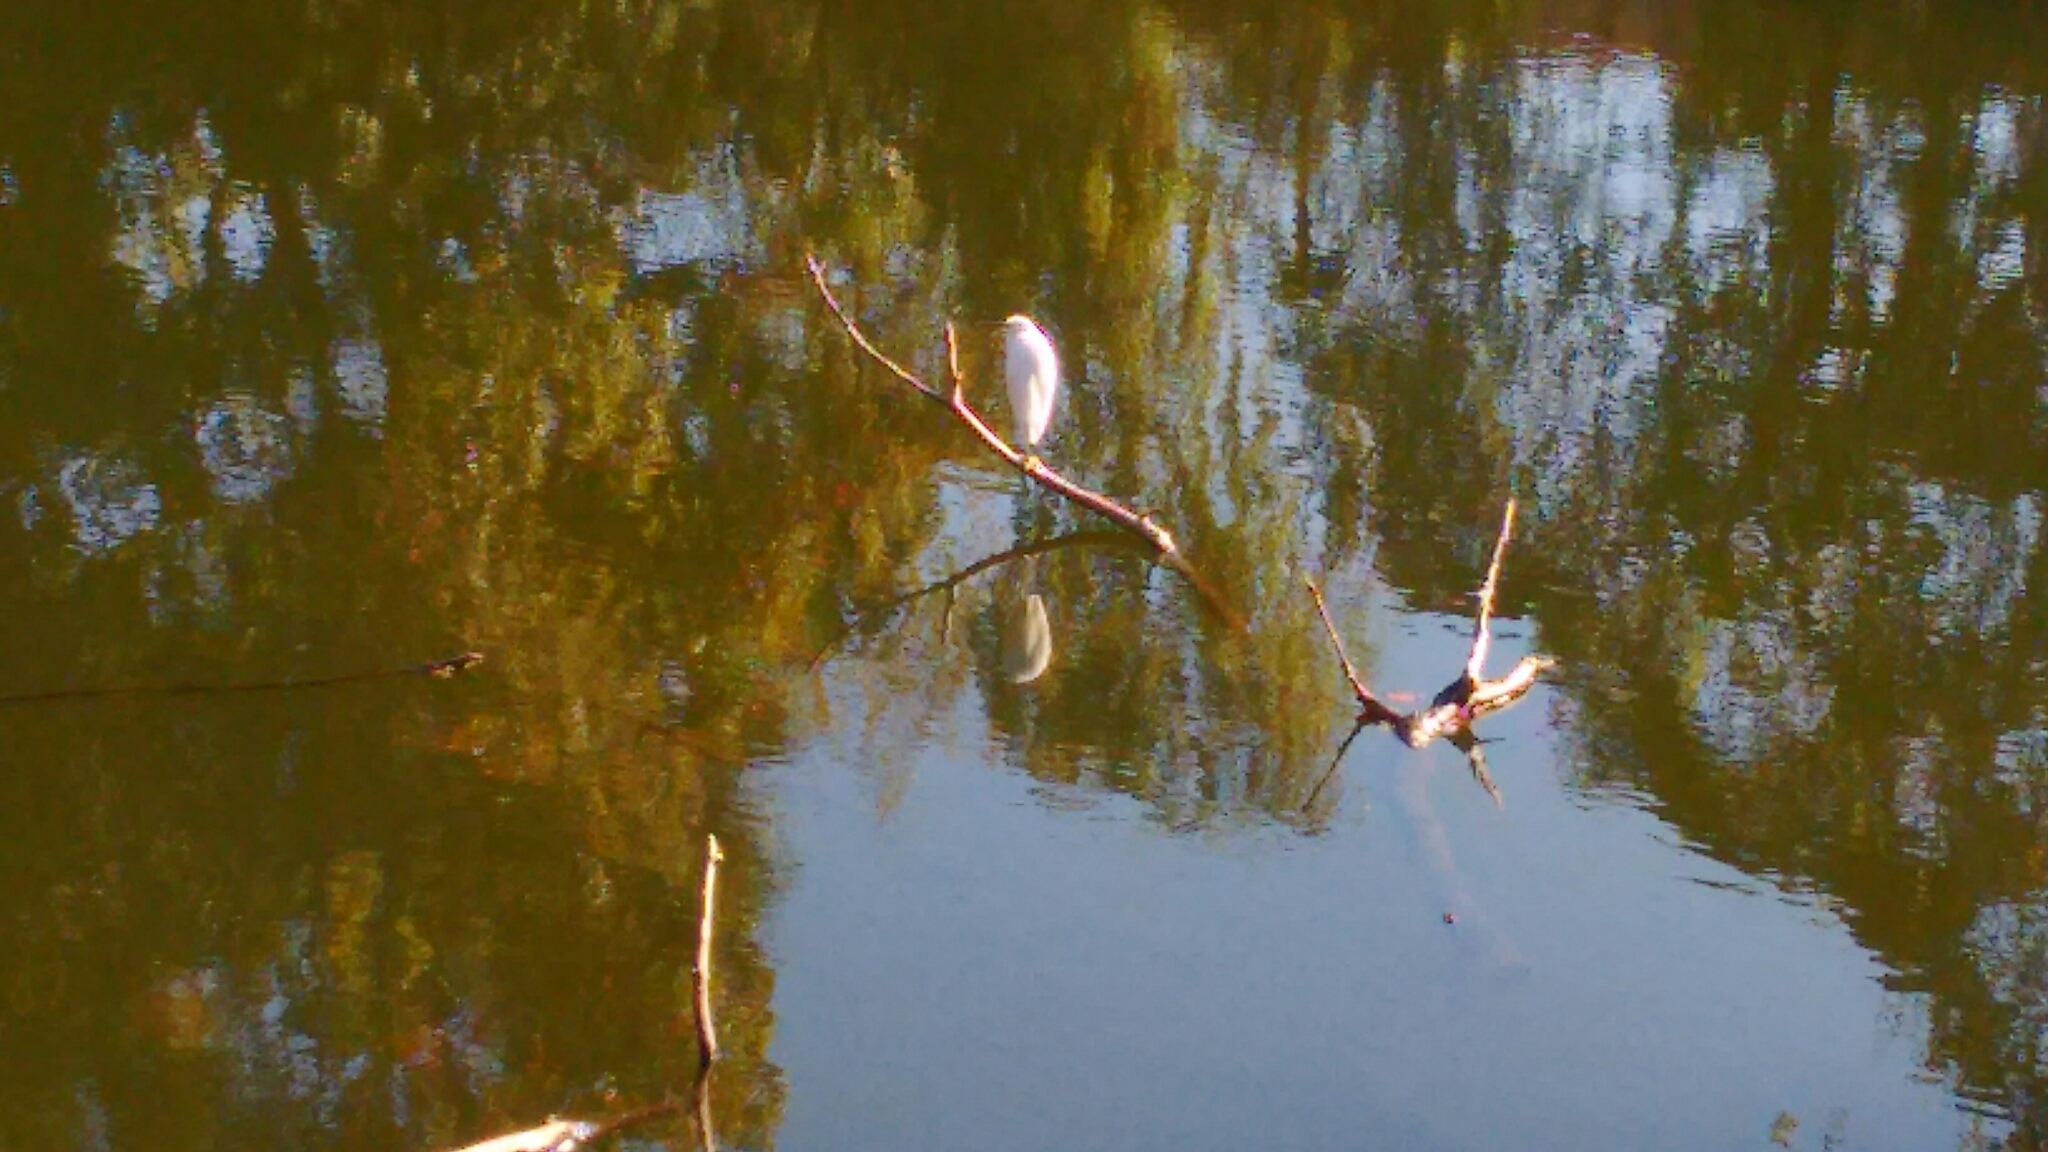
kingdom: Animalia
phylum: Chordata
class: Aves
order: Pelecaniformes
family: Ardeidae
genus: Egretta
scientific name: Egretta thula
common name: Snowy egret
